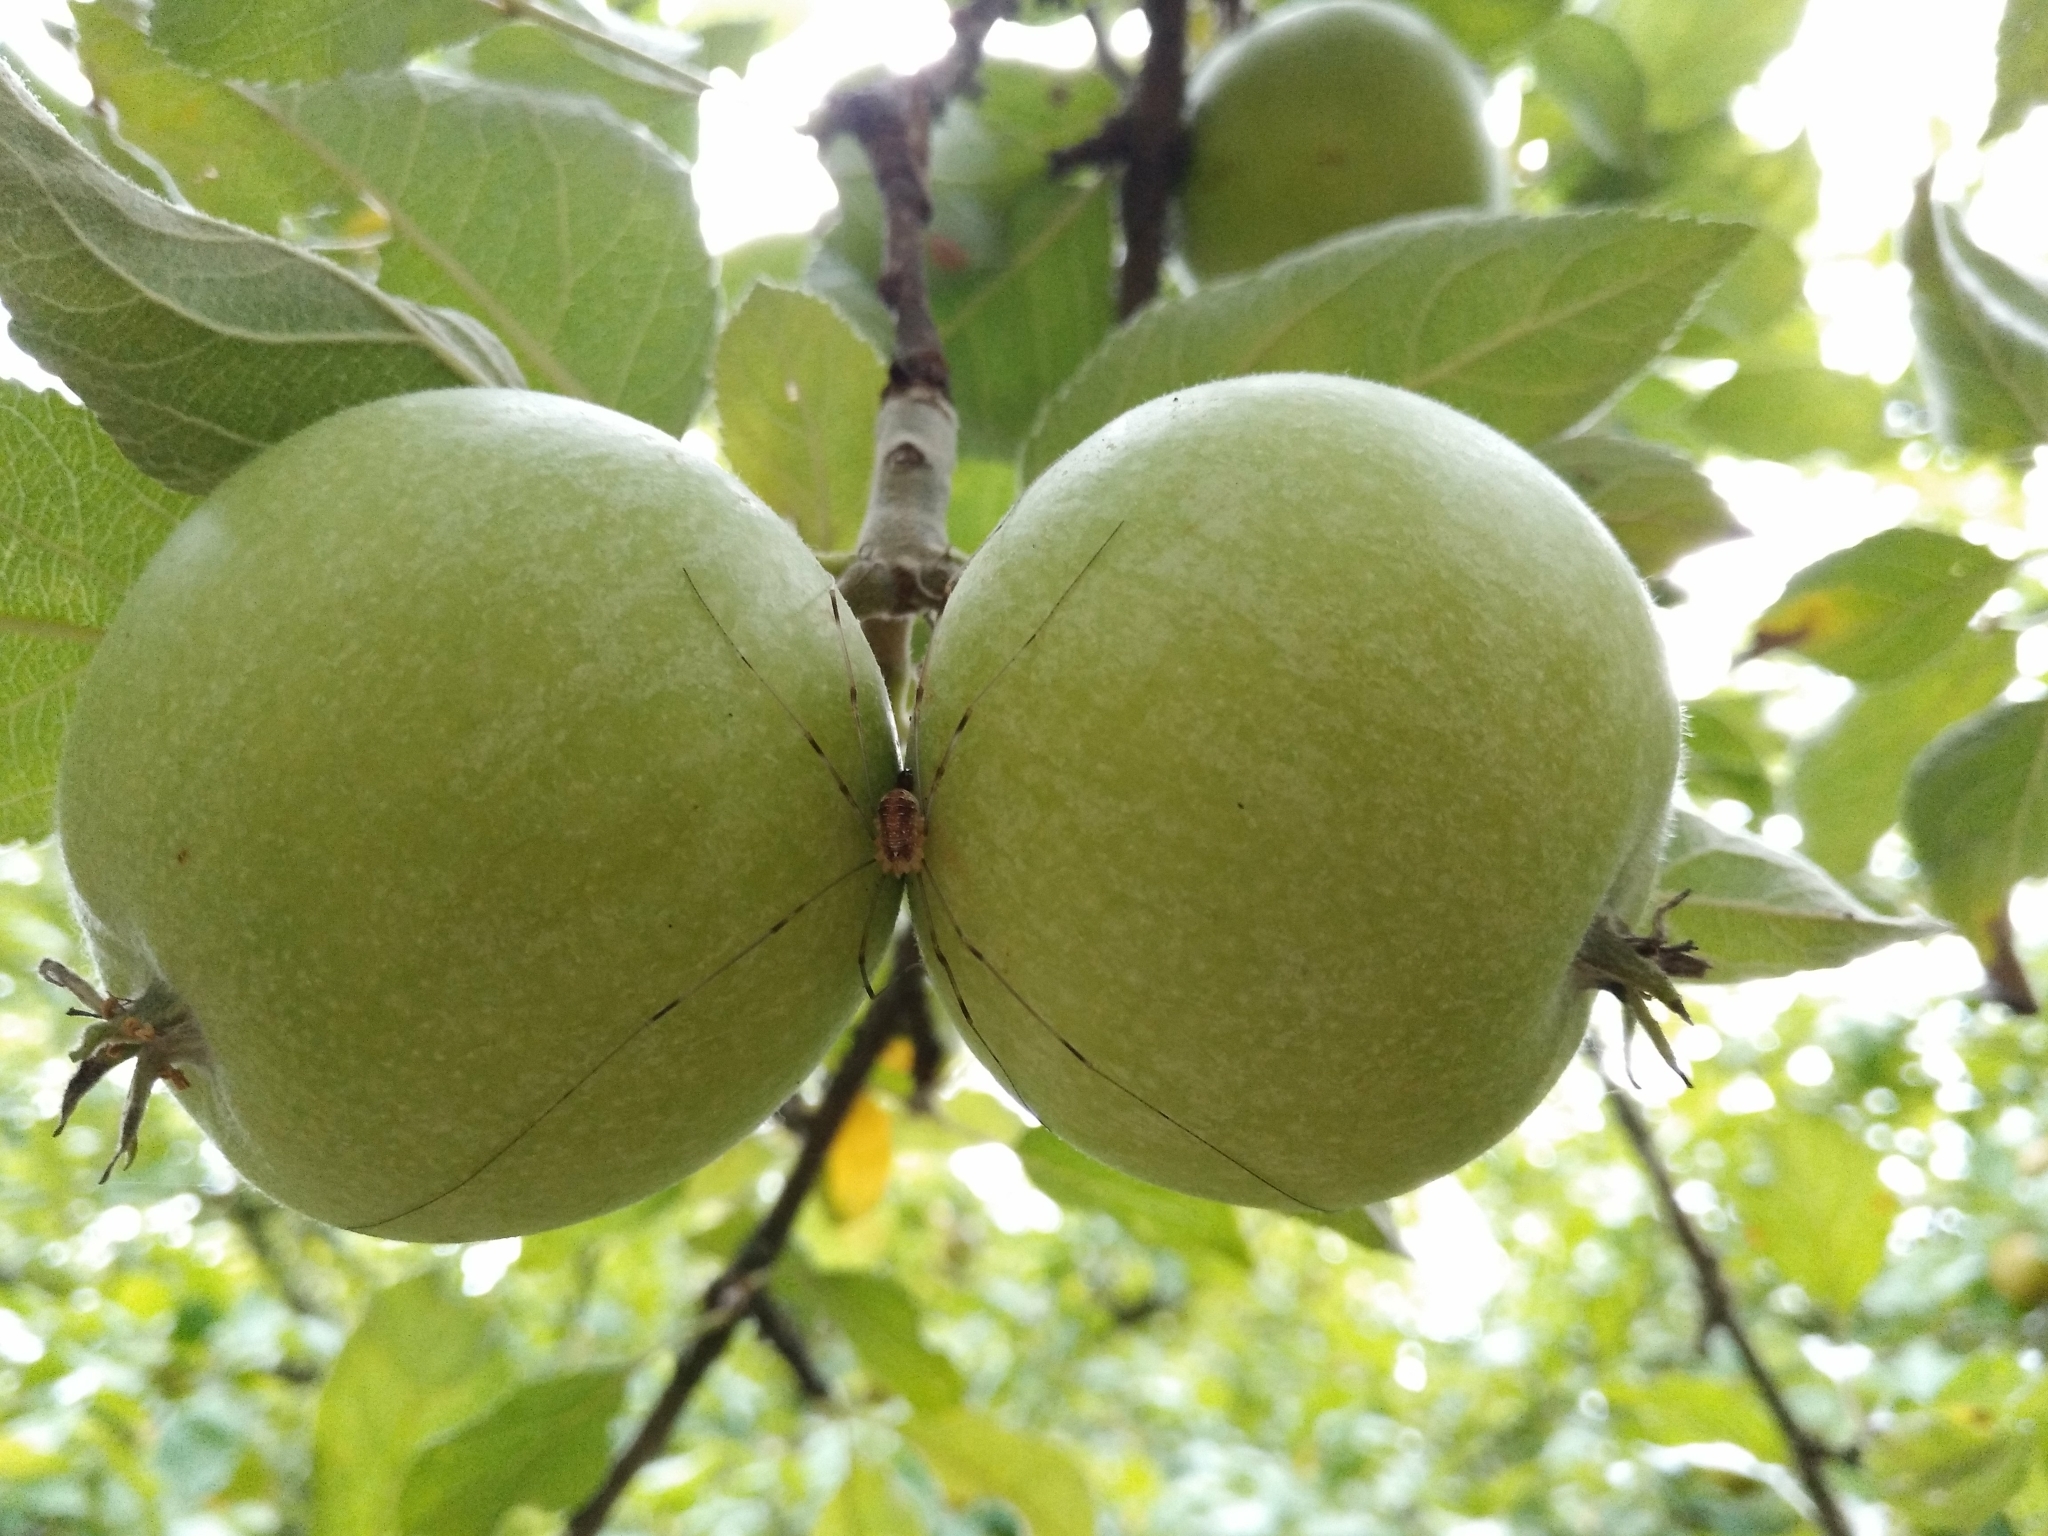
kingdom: Animalia
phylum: Arthropoda
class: Arachnida
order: Opiliones
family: Phalangiidae
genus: Opilio
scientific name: Opilio canestrinii
